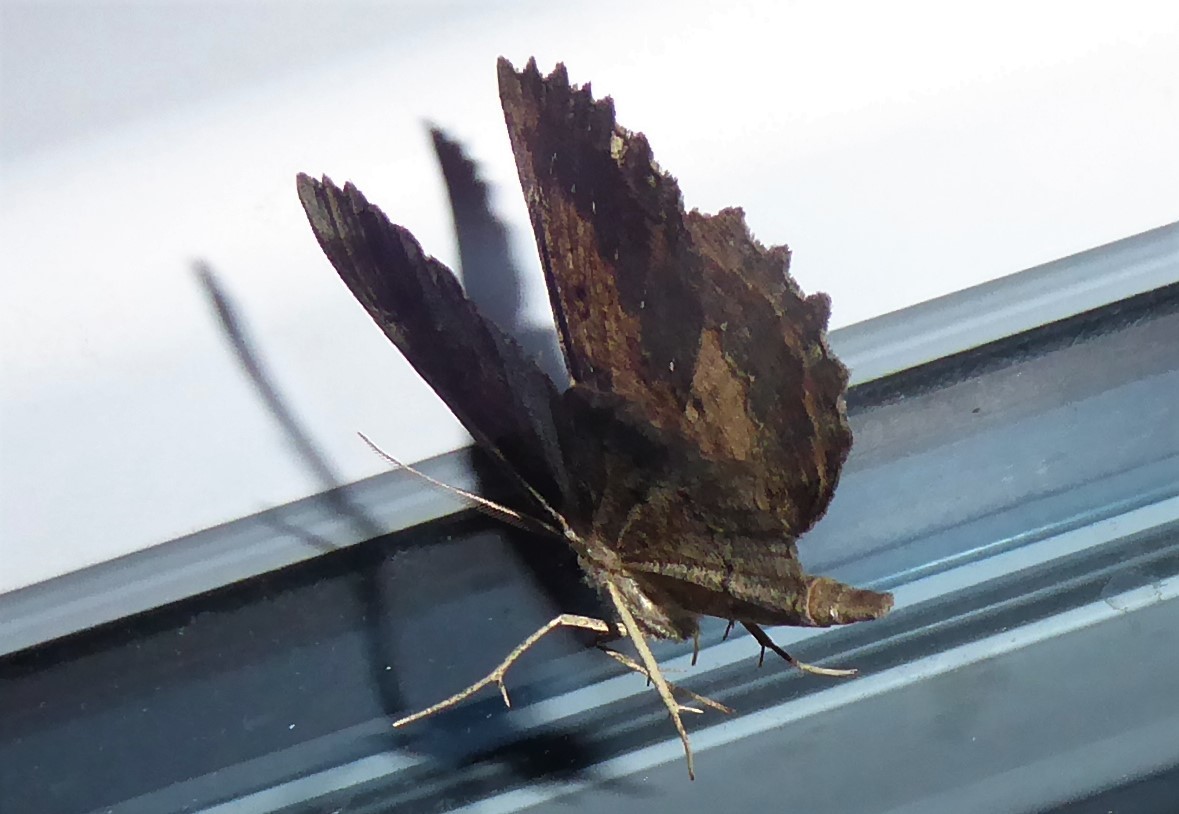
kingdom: Animalia
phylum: Arthropoda
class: Insecta
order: Lepidoptera
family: Geometridae
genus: Gellonia
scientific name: Gellonia pannularia
